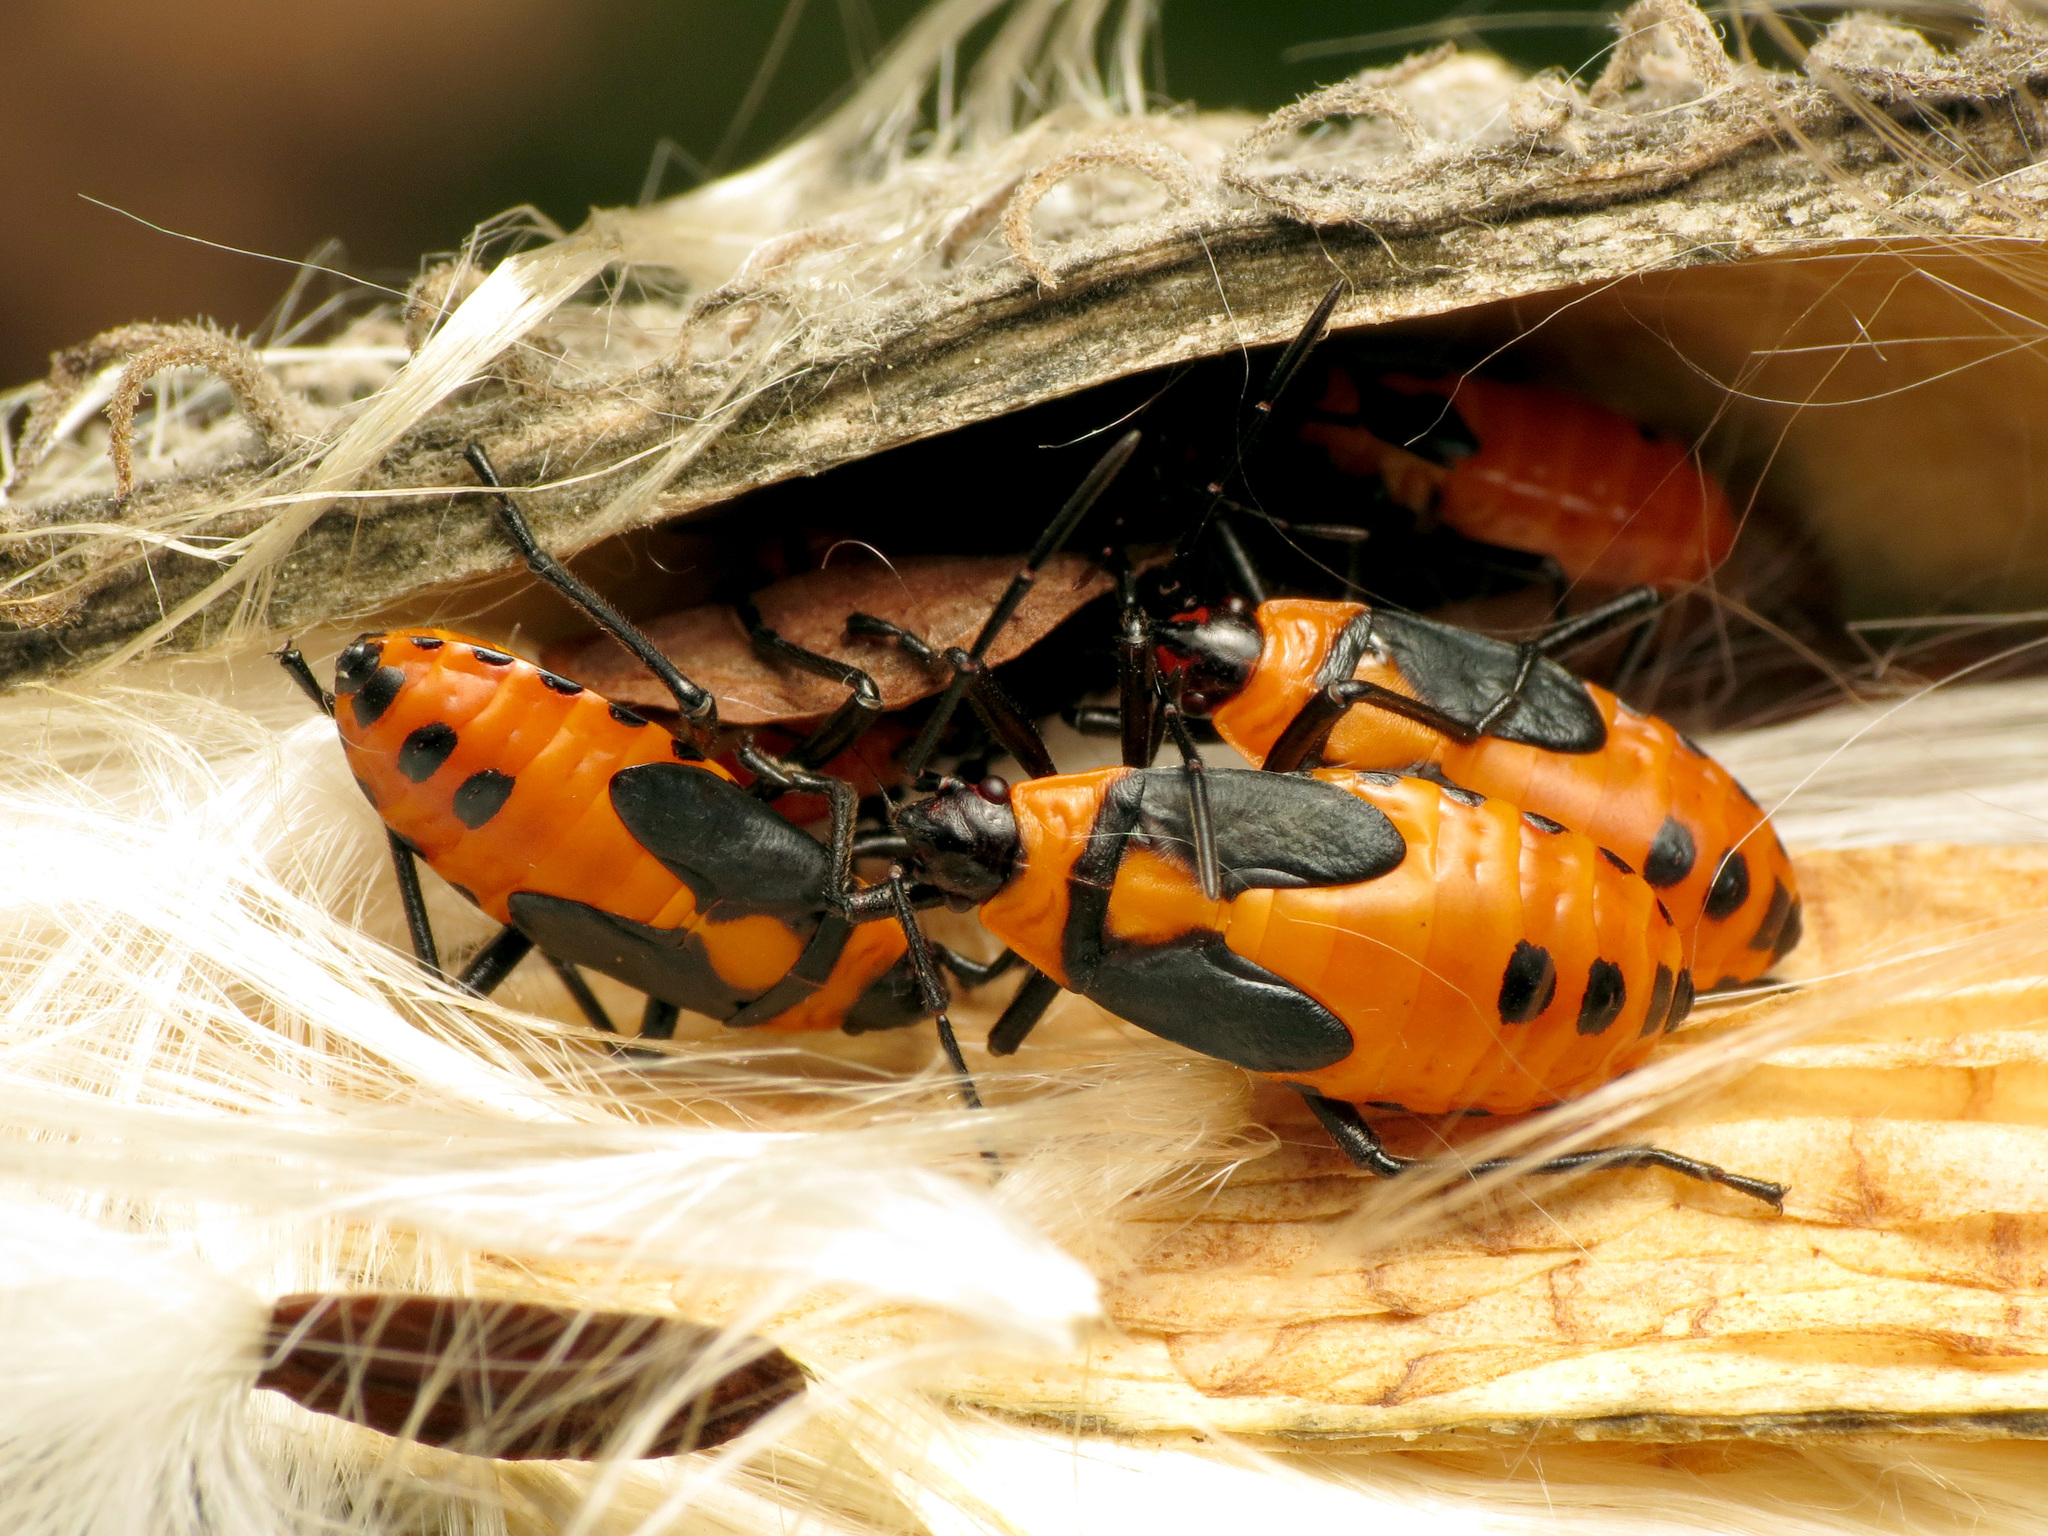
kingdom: Animalia
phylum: Arthropoda
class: Insecta
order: Hemiptera
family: Lygaeidae
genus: Oncopeltus
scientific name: Oncopeltus fasciatus
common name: Large milkweed bug
